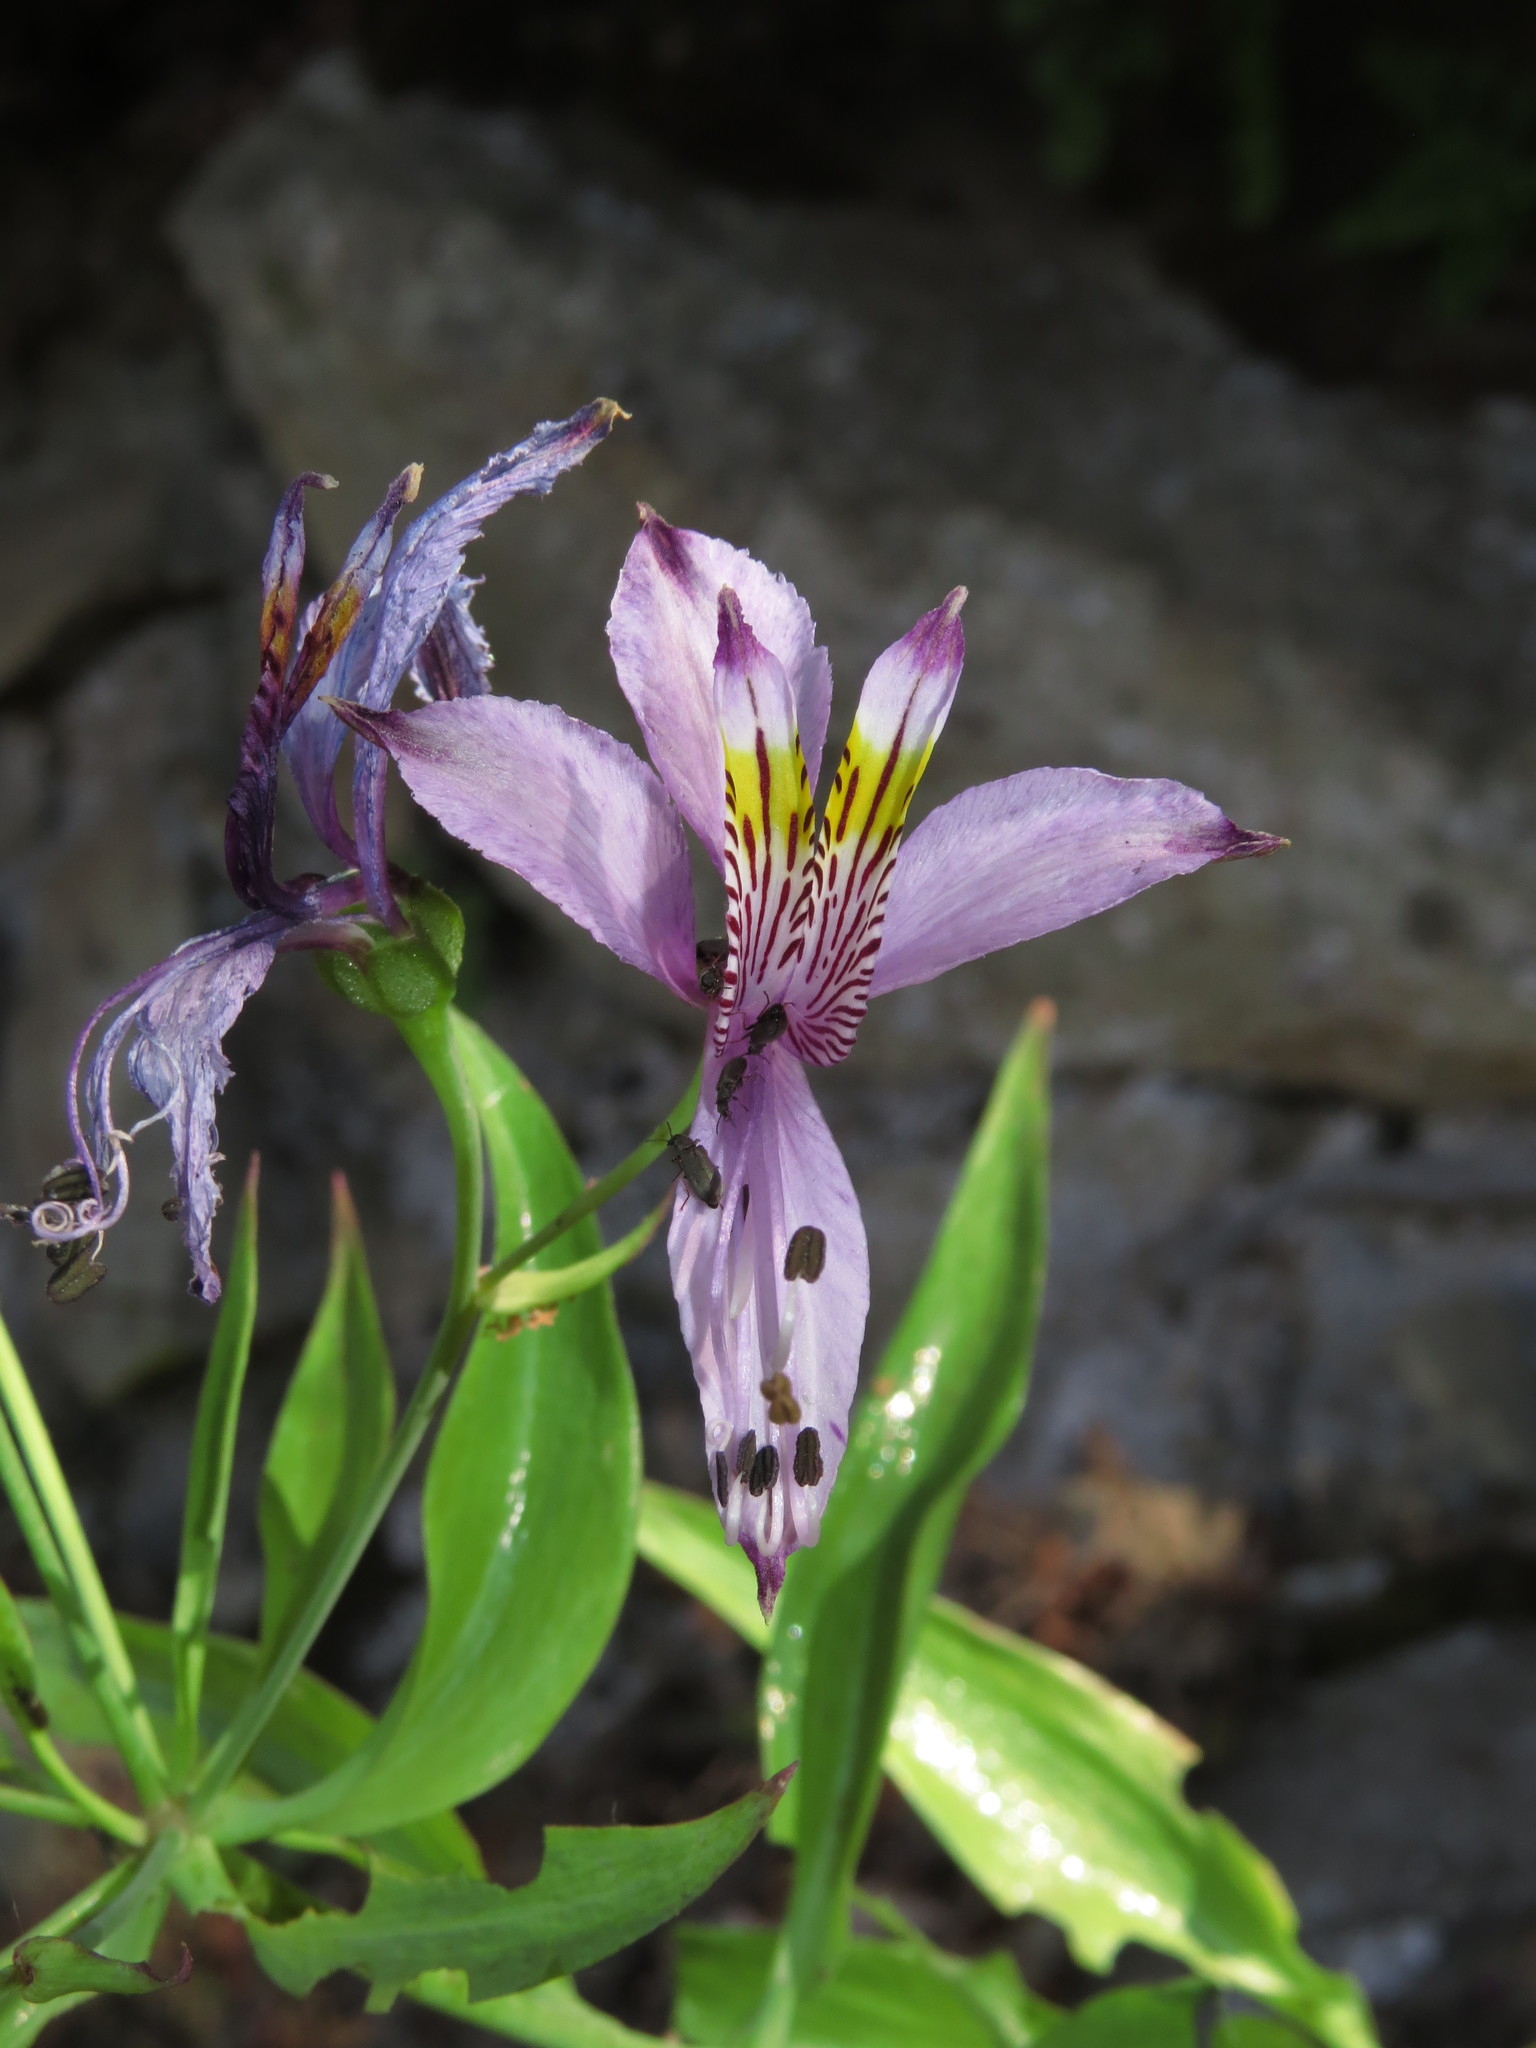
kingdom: Plantae
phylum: Tracheophyta
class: Liliopsida
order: Liliales
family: Alstroemeriaceae
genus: Alstroemeria
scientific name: Alstroemeria zoellneri
